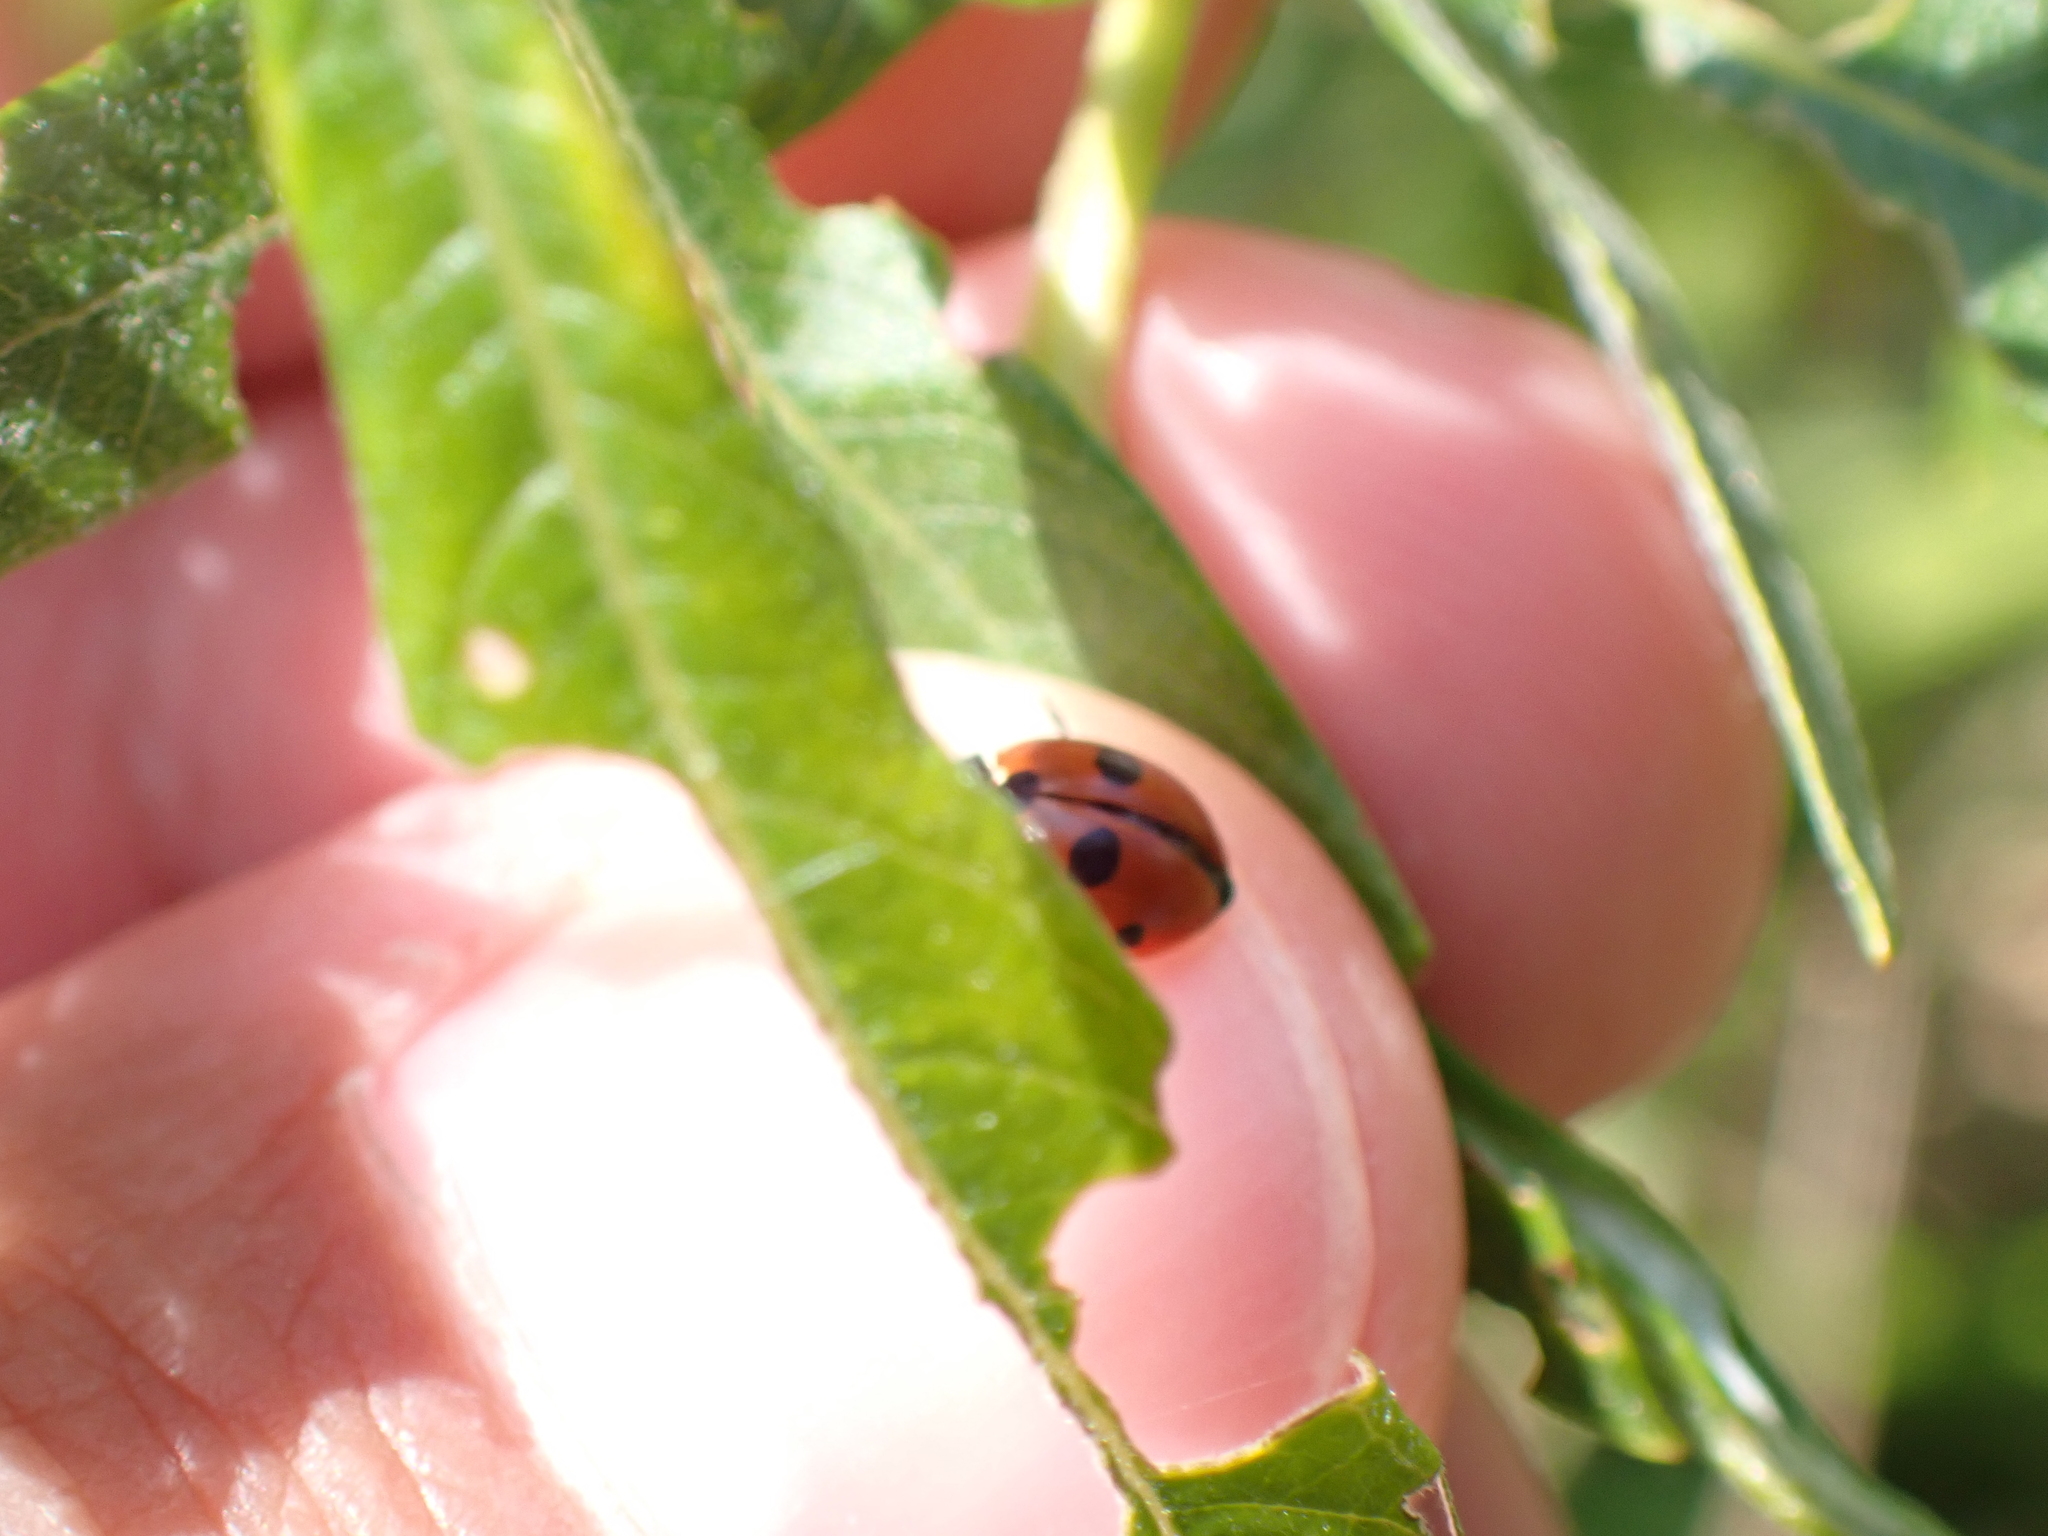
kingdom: Animalia
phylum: Arthropoda
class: Insecta
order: Coleoptera
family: Coccinellidae
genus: Coccinella
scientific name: Coccinella quinquepunctata
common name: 5-spot ladybird
